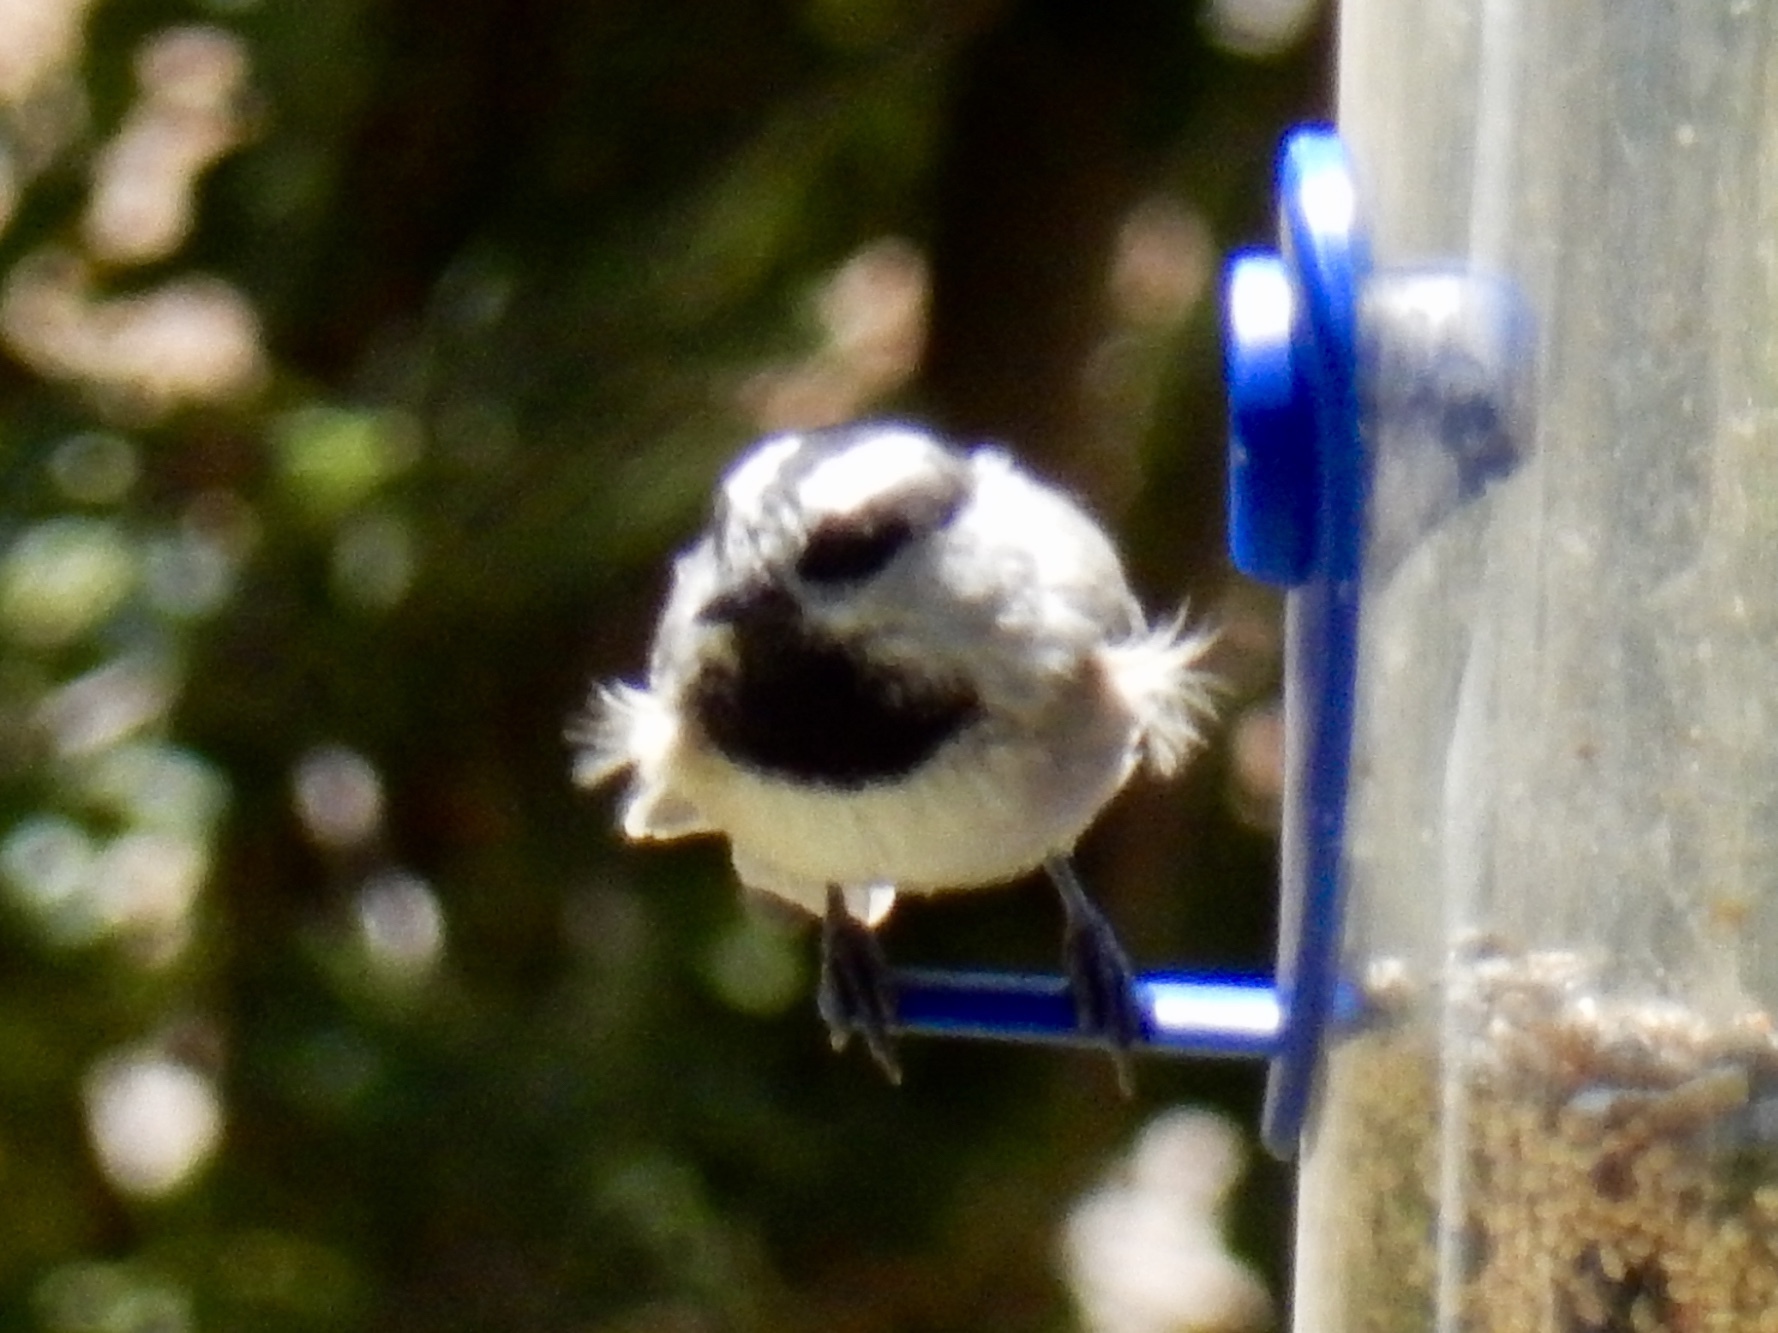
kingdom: Animalia
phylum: Chordata
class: Aves
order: Passeriformes
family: Paridae
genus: Poecile
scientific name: Poecile gambeli
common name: Mountain chickadee
